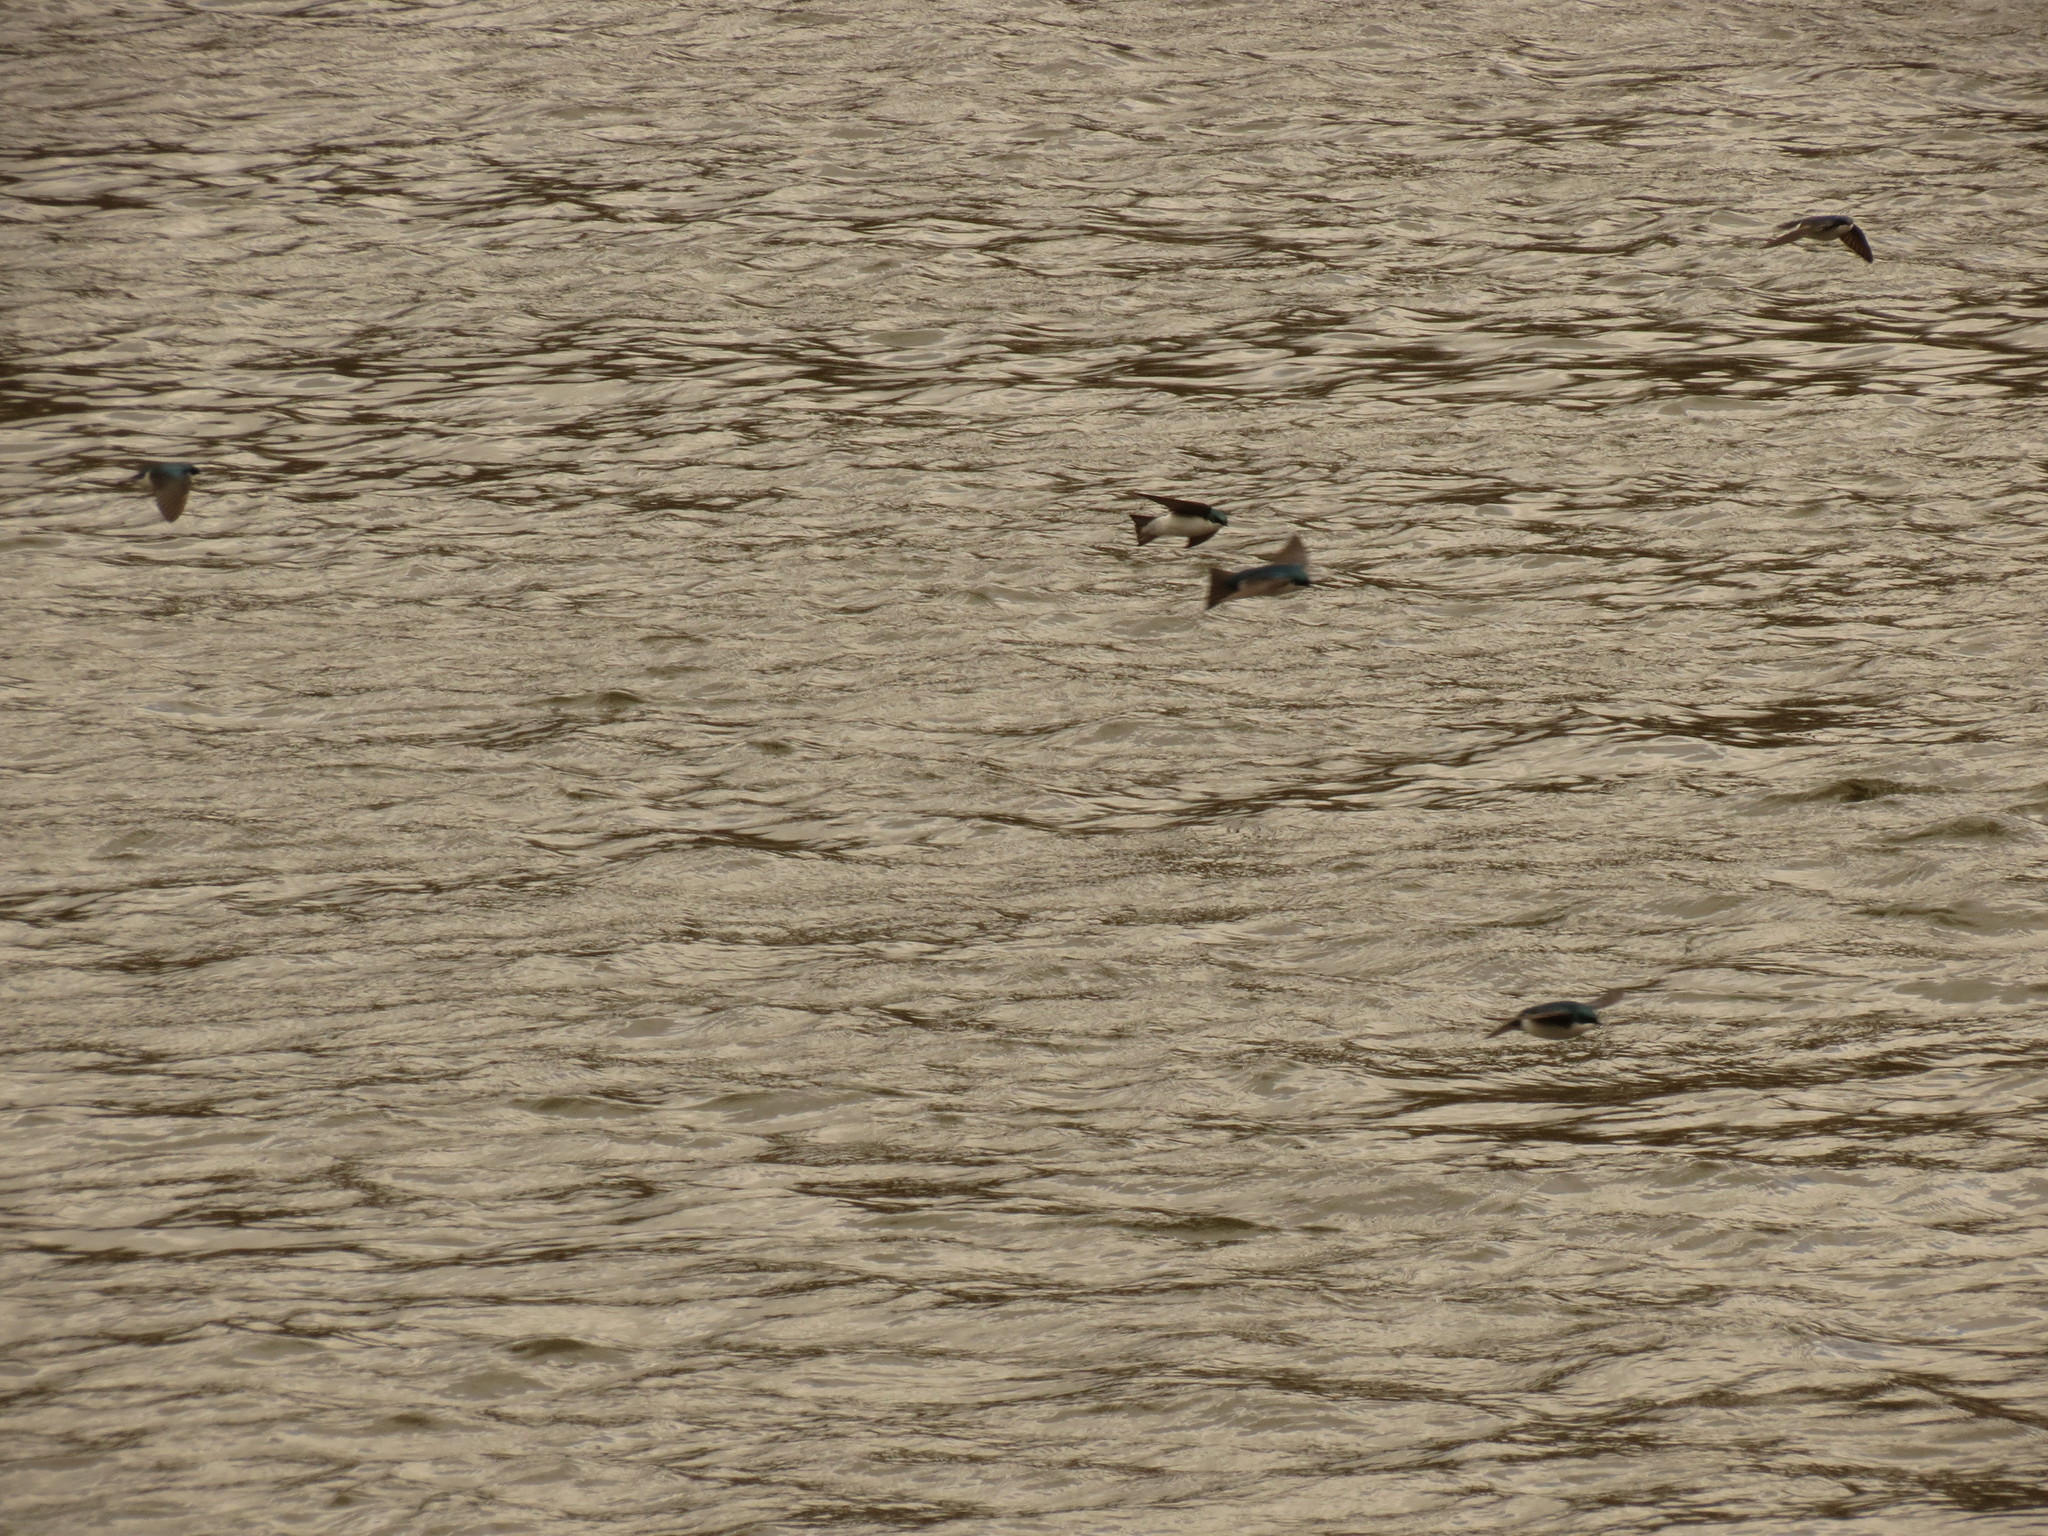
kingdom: Animalia
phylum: Chordata
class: Aves
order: Passeriformes
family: Hirundinidae
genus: Tachycineta
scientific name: Tachycineta bicolor
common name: Tree swallow
